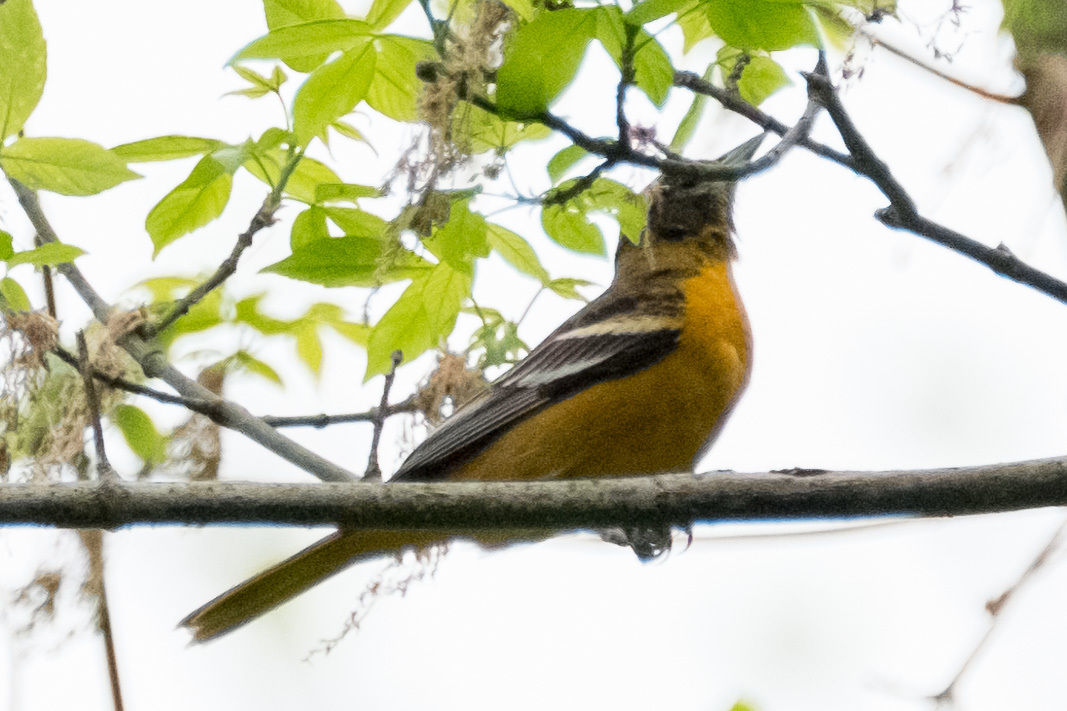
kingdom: Animalia
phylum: Chordata
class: Aves
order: Passeriformes
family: Icteridae
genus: Icterus
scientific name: Icterus galbula
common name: Baltimore oriole
